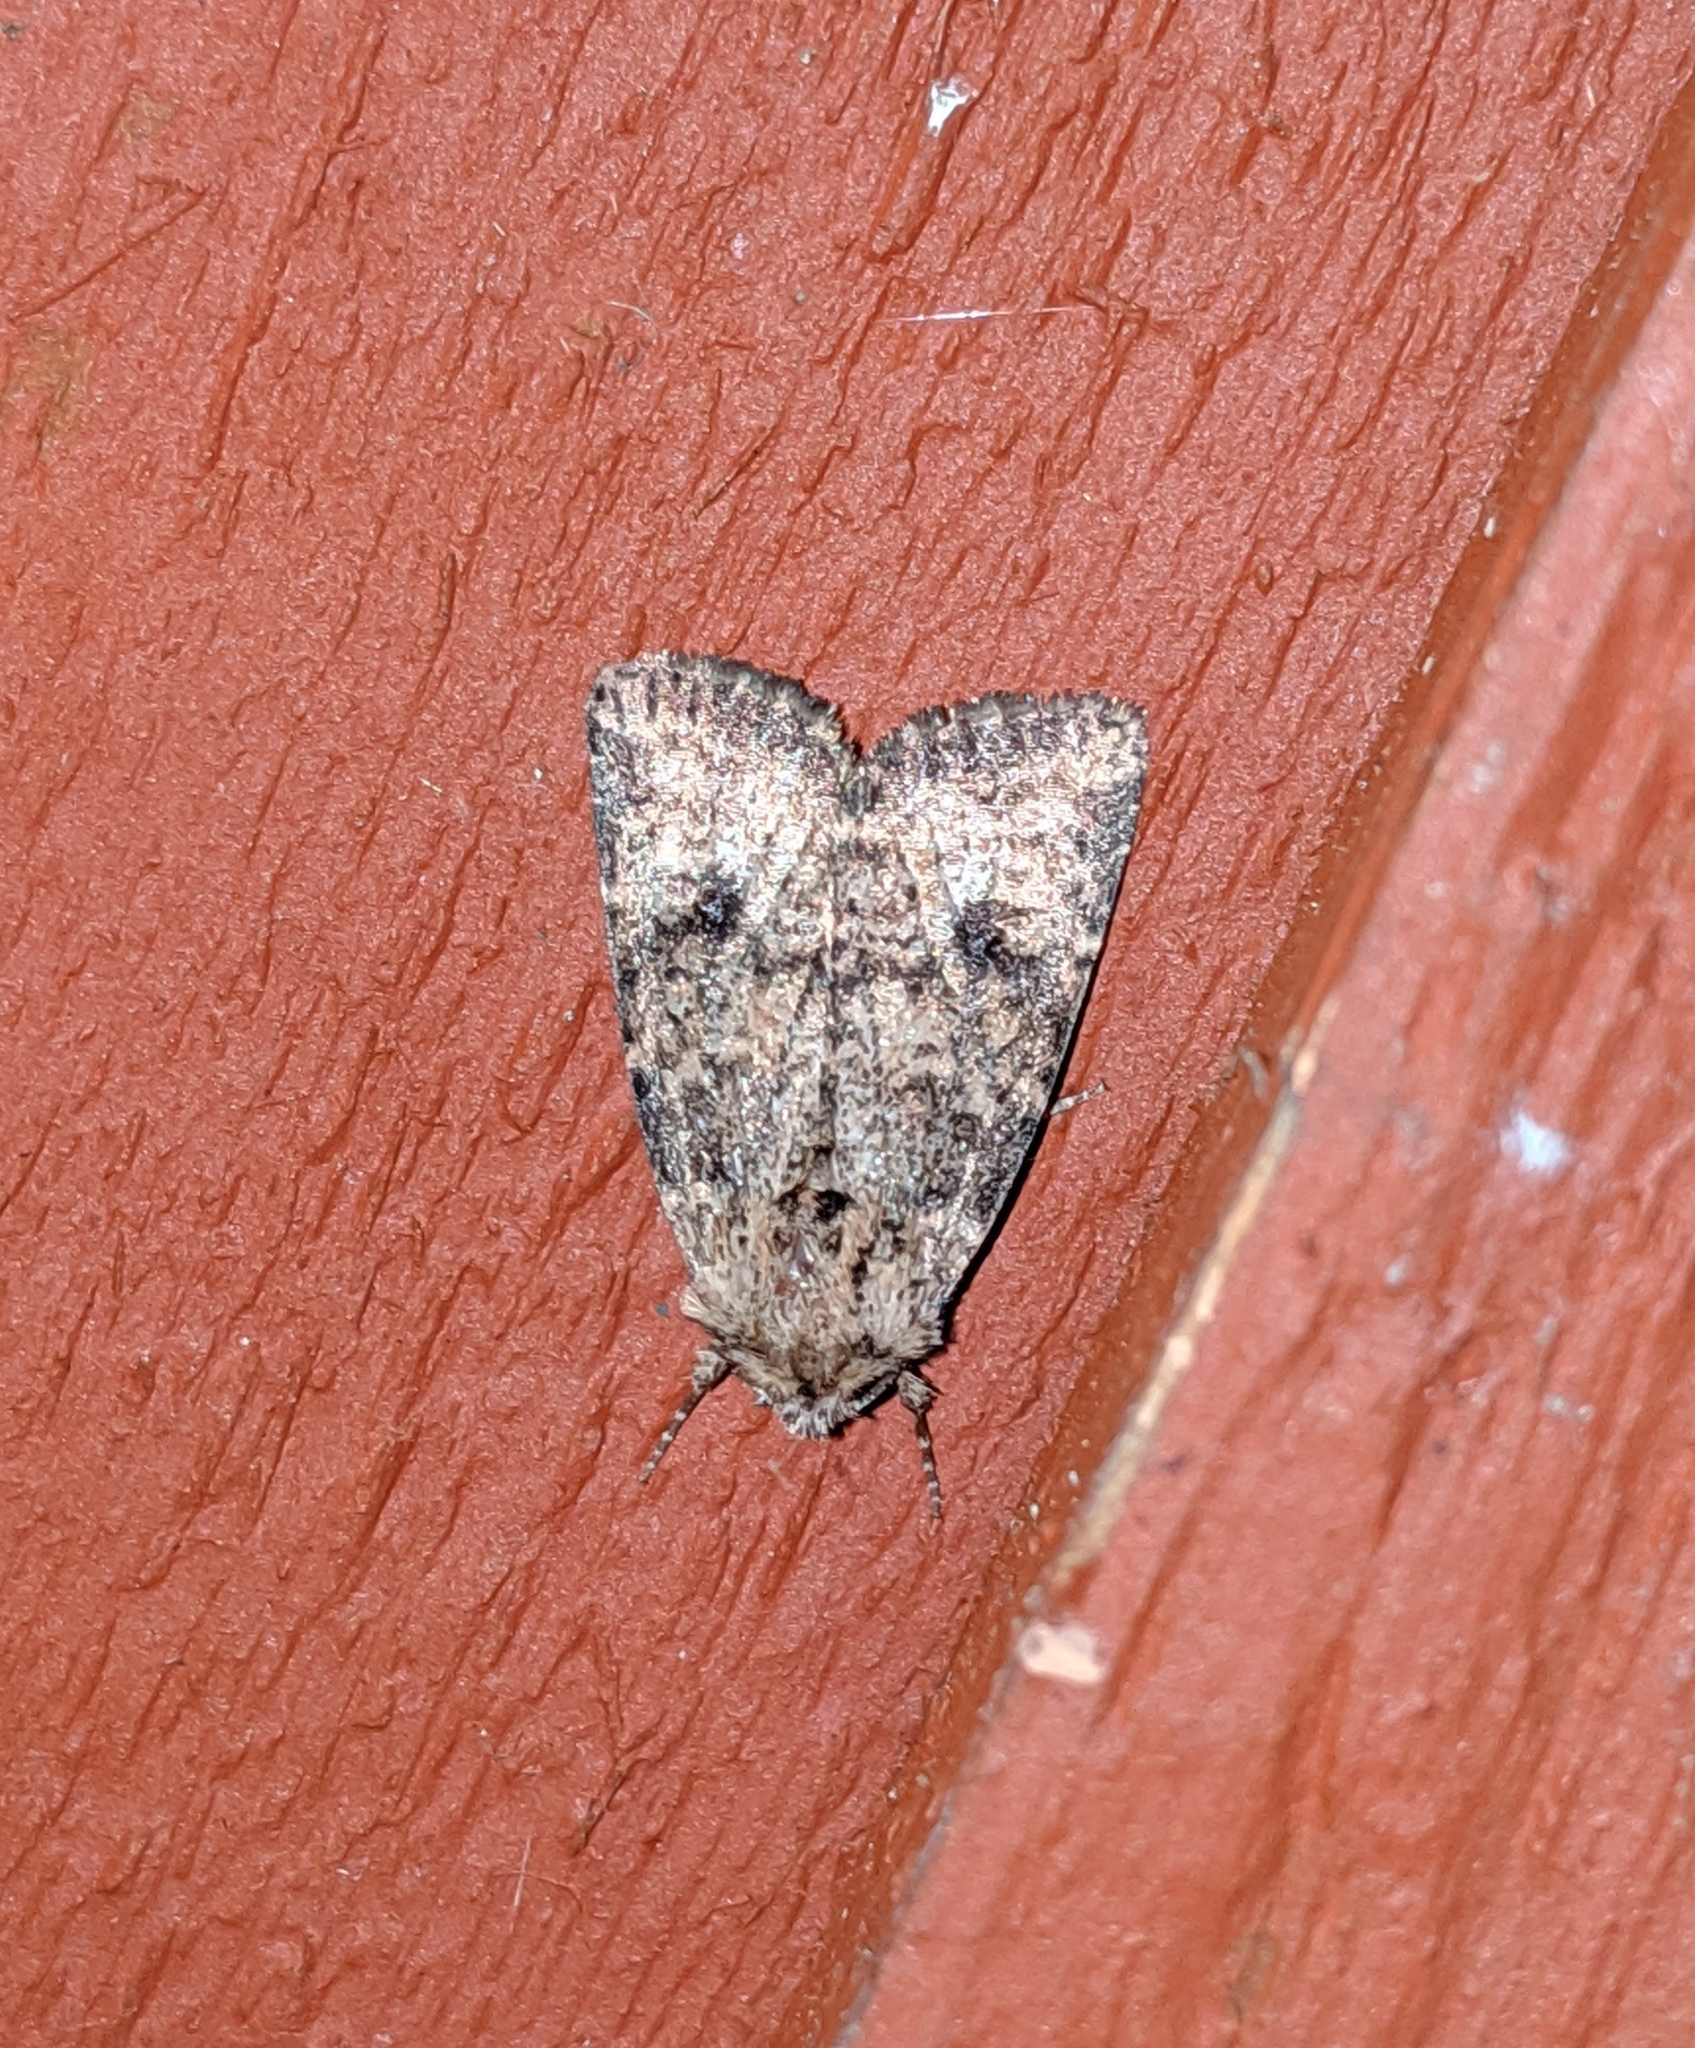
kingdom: Animalia
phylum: Arthropoda
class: Insecta
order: Lepidoptera
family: Noctuidae
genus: Homorthodes
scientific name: Homorthodes hanhami
